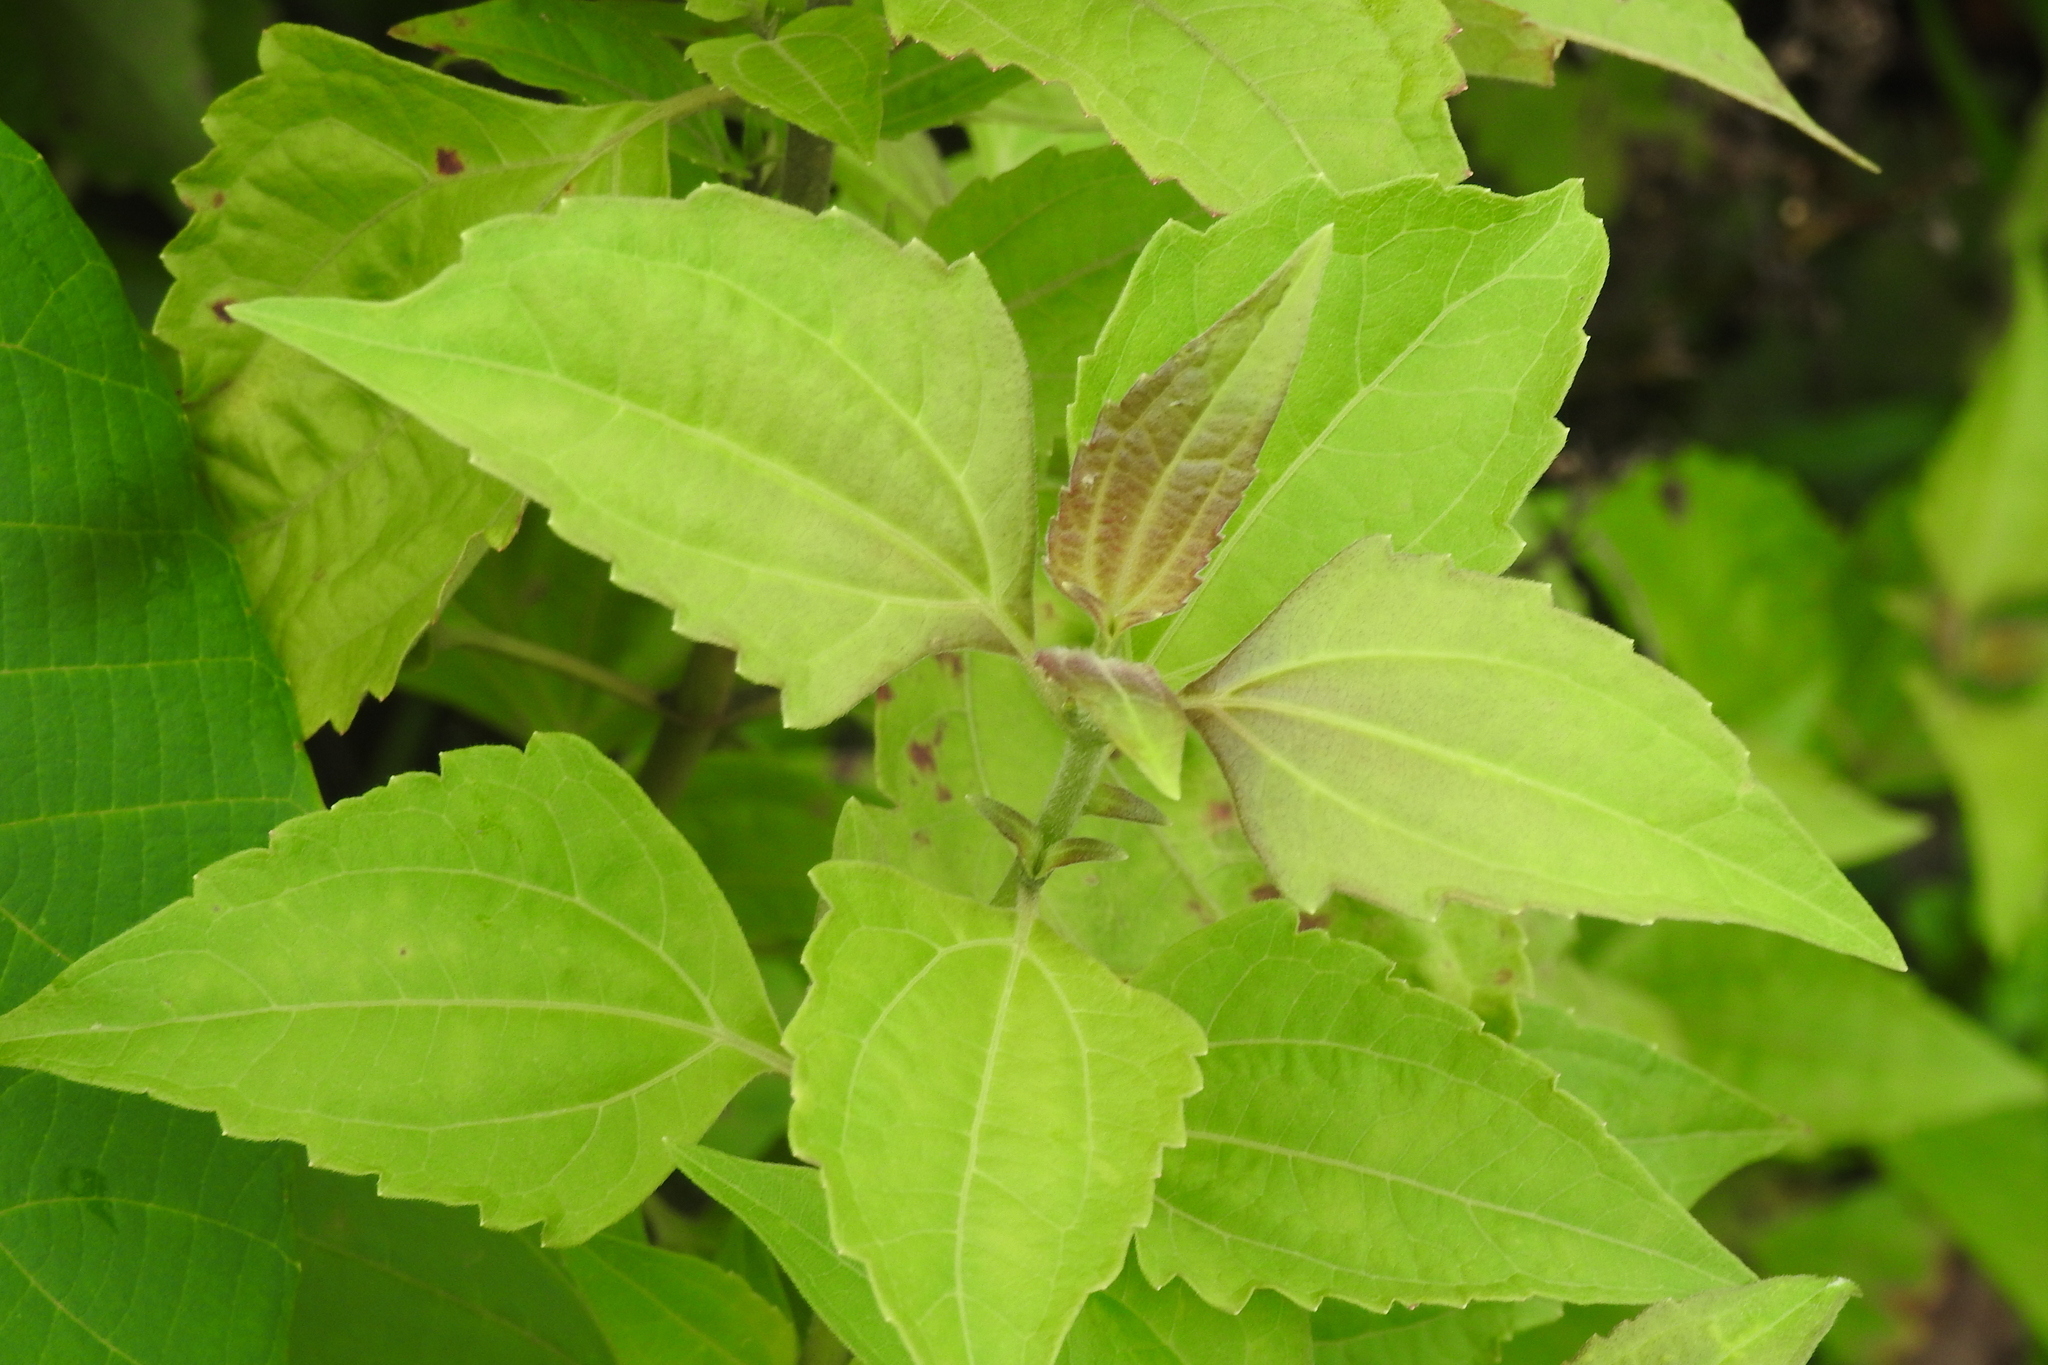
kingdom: Plantae
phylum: Tracheophyta
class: Magnoliopsida
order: Asterales
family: Asteraceae
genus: Chromolaena
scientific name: Chromolaena odorata
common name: Siamweed
